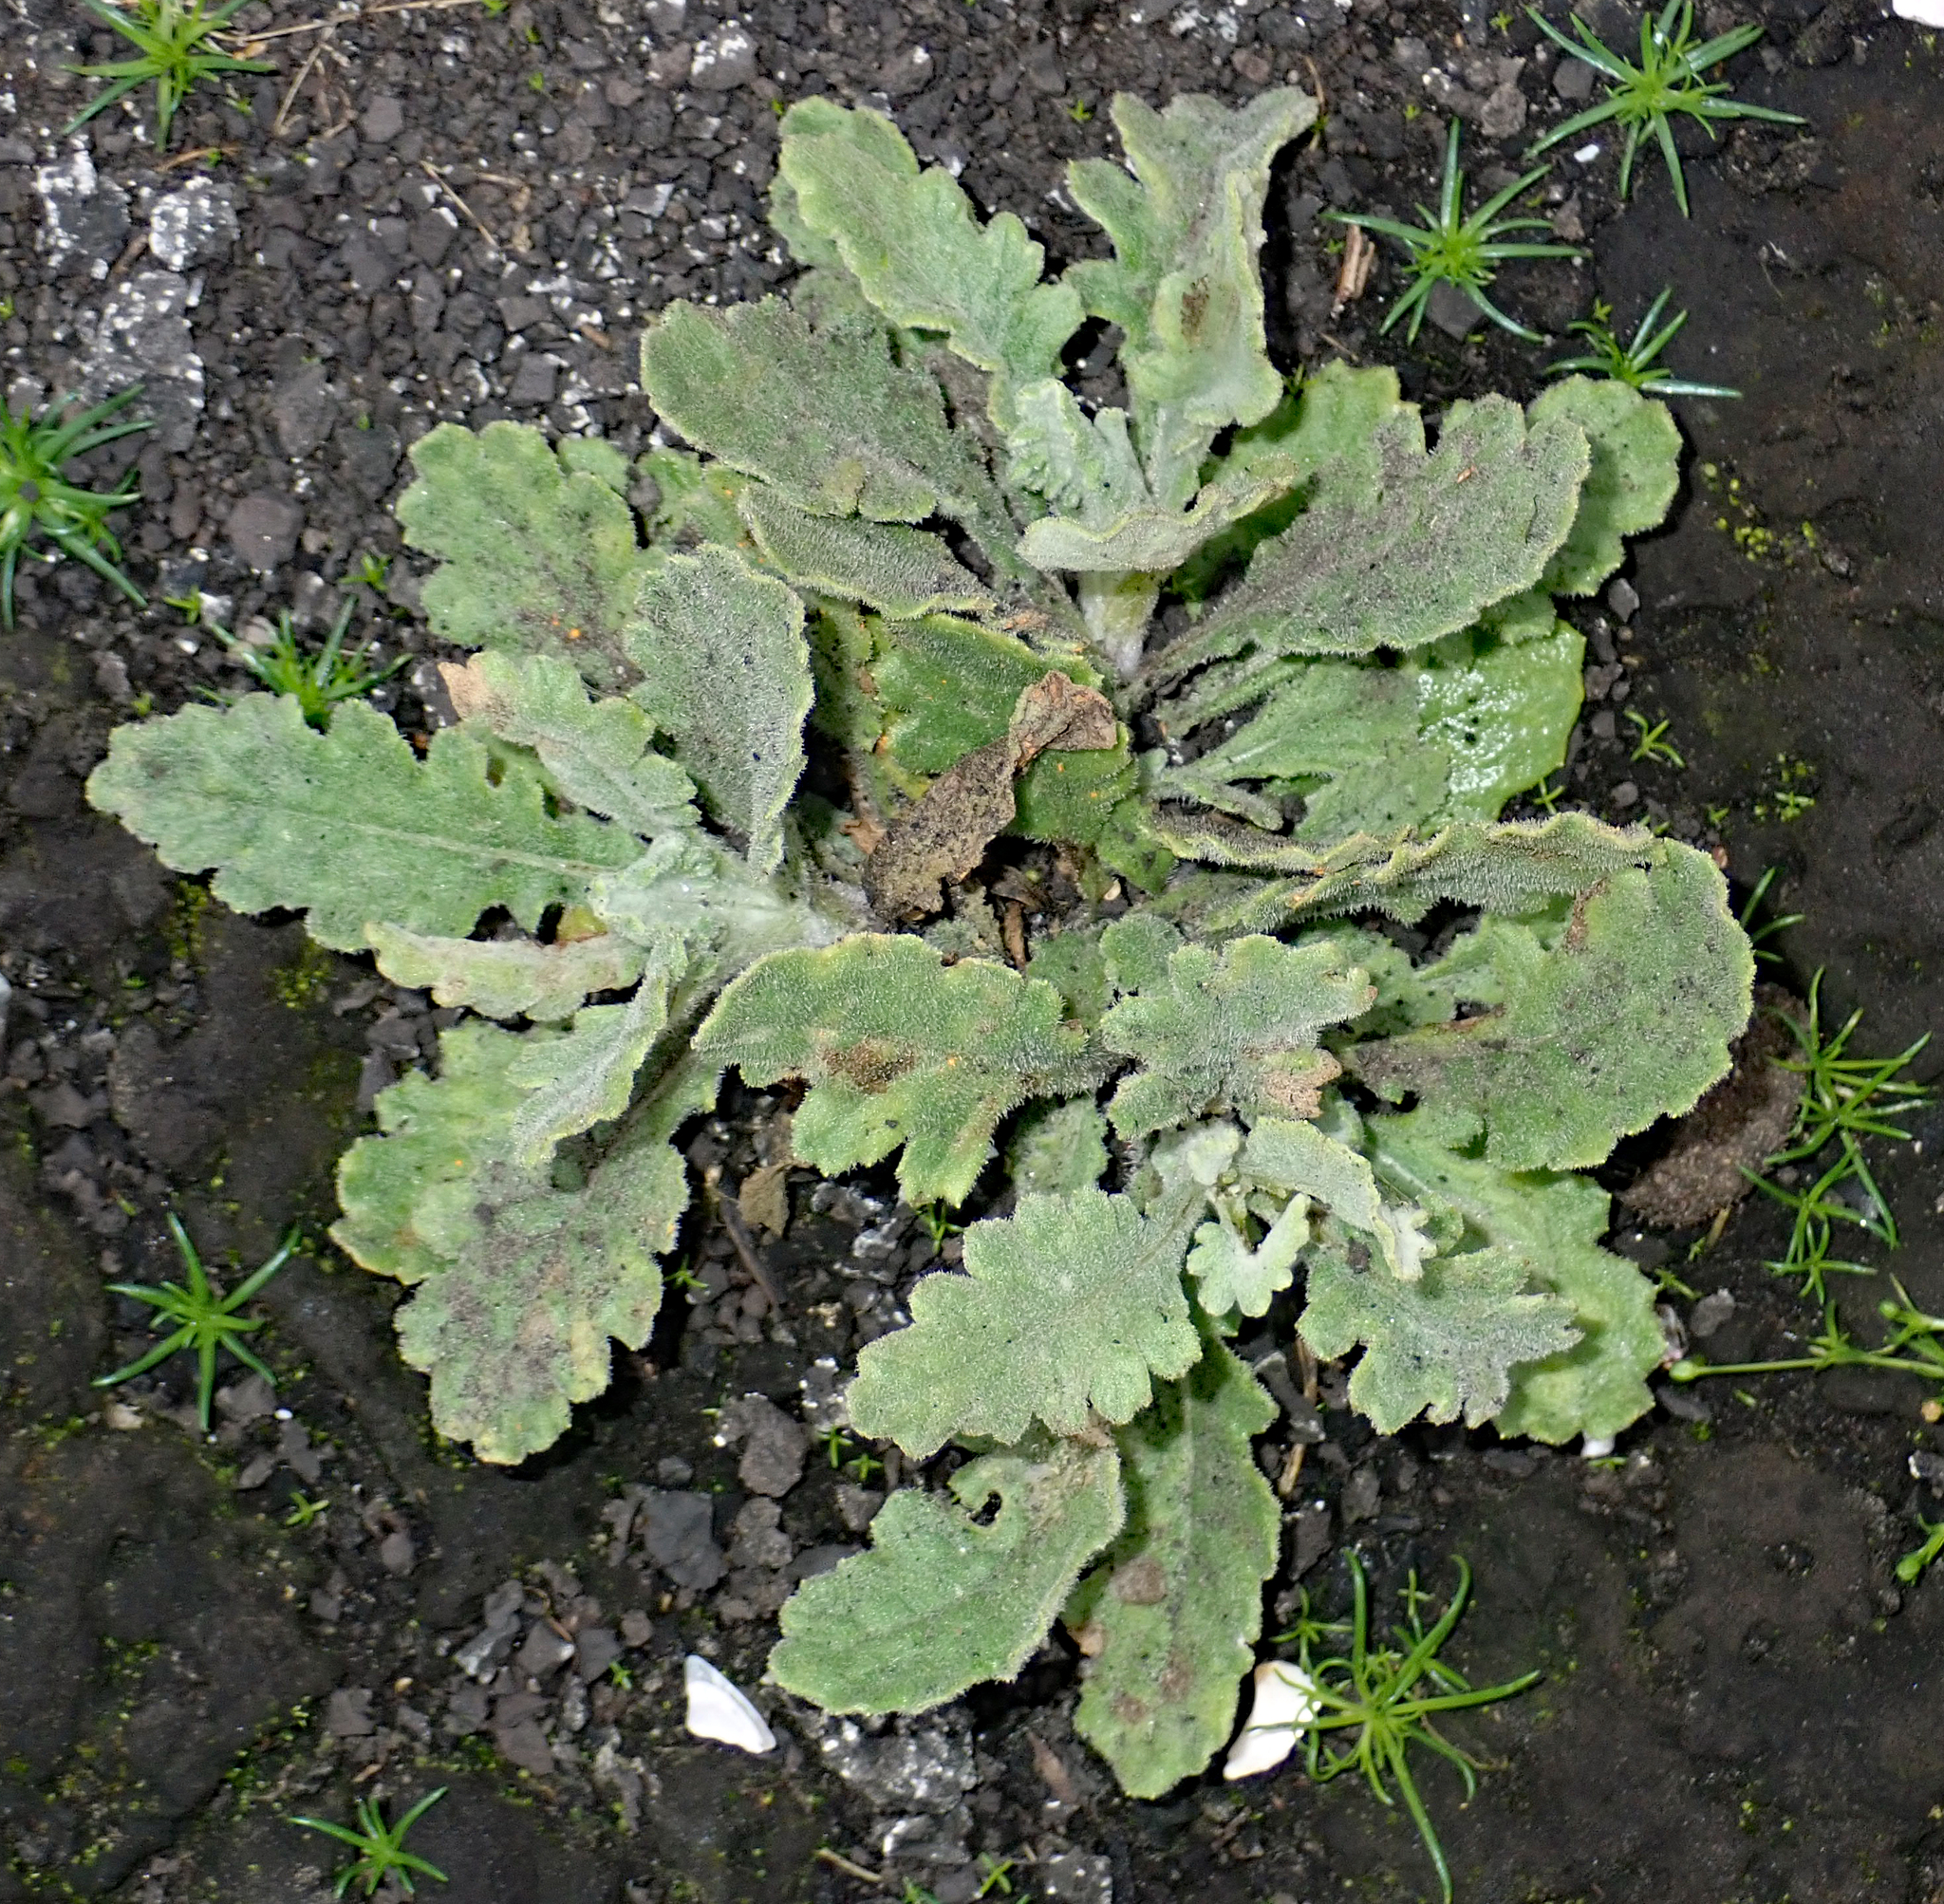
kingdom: Plantae
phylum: Tracheophyta
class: Magnoliopsida
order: Asterales
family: Asteraceae
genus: Senecio
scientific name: Senecio glomeratus
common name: Cutleaf burnweed
